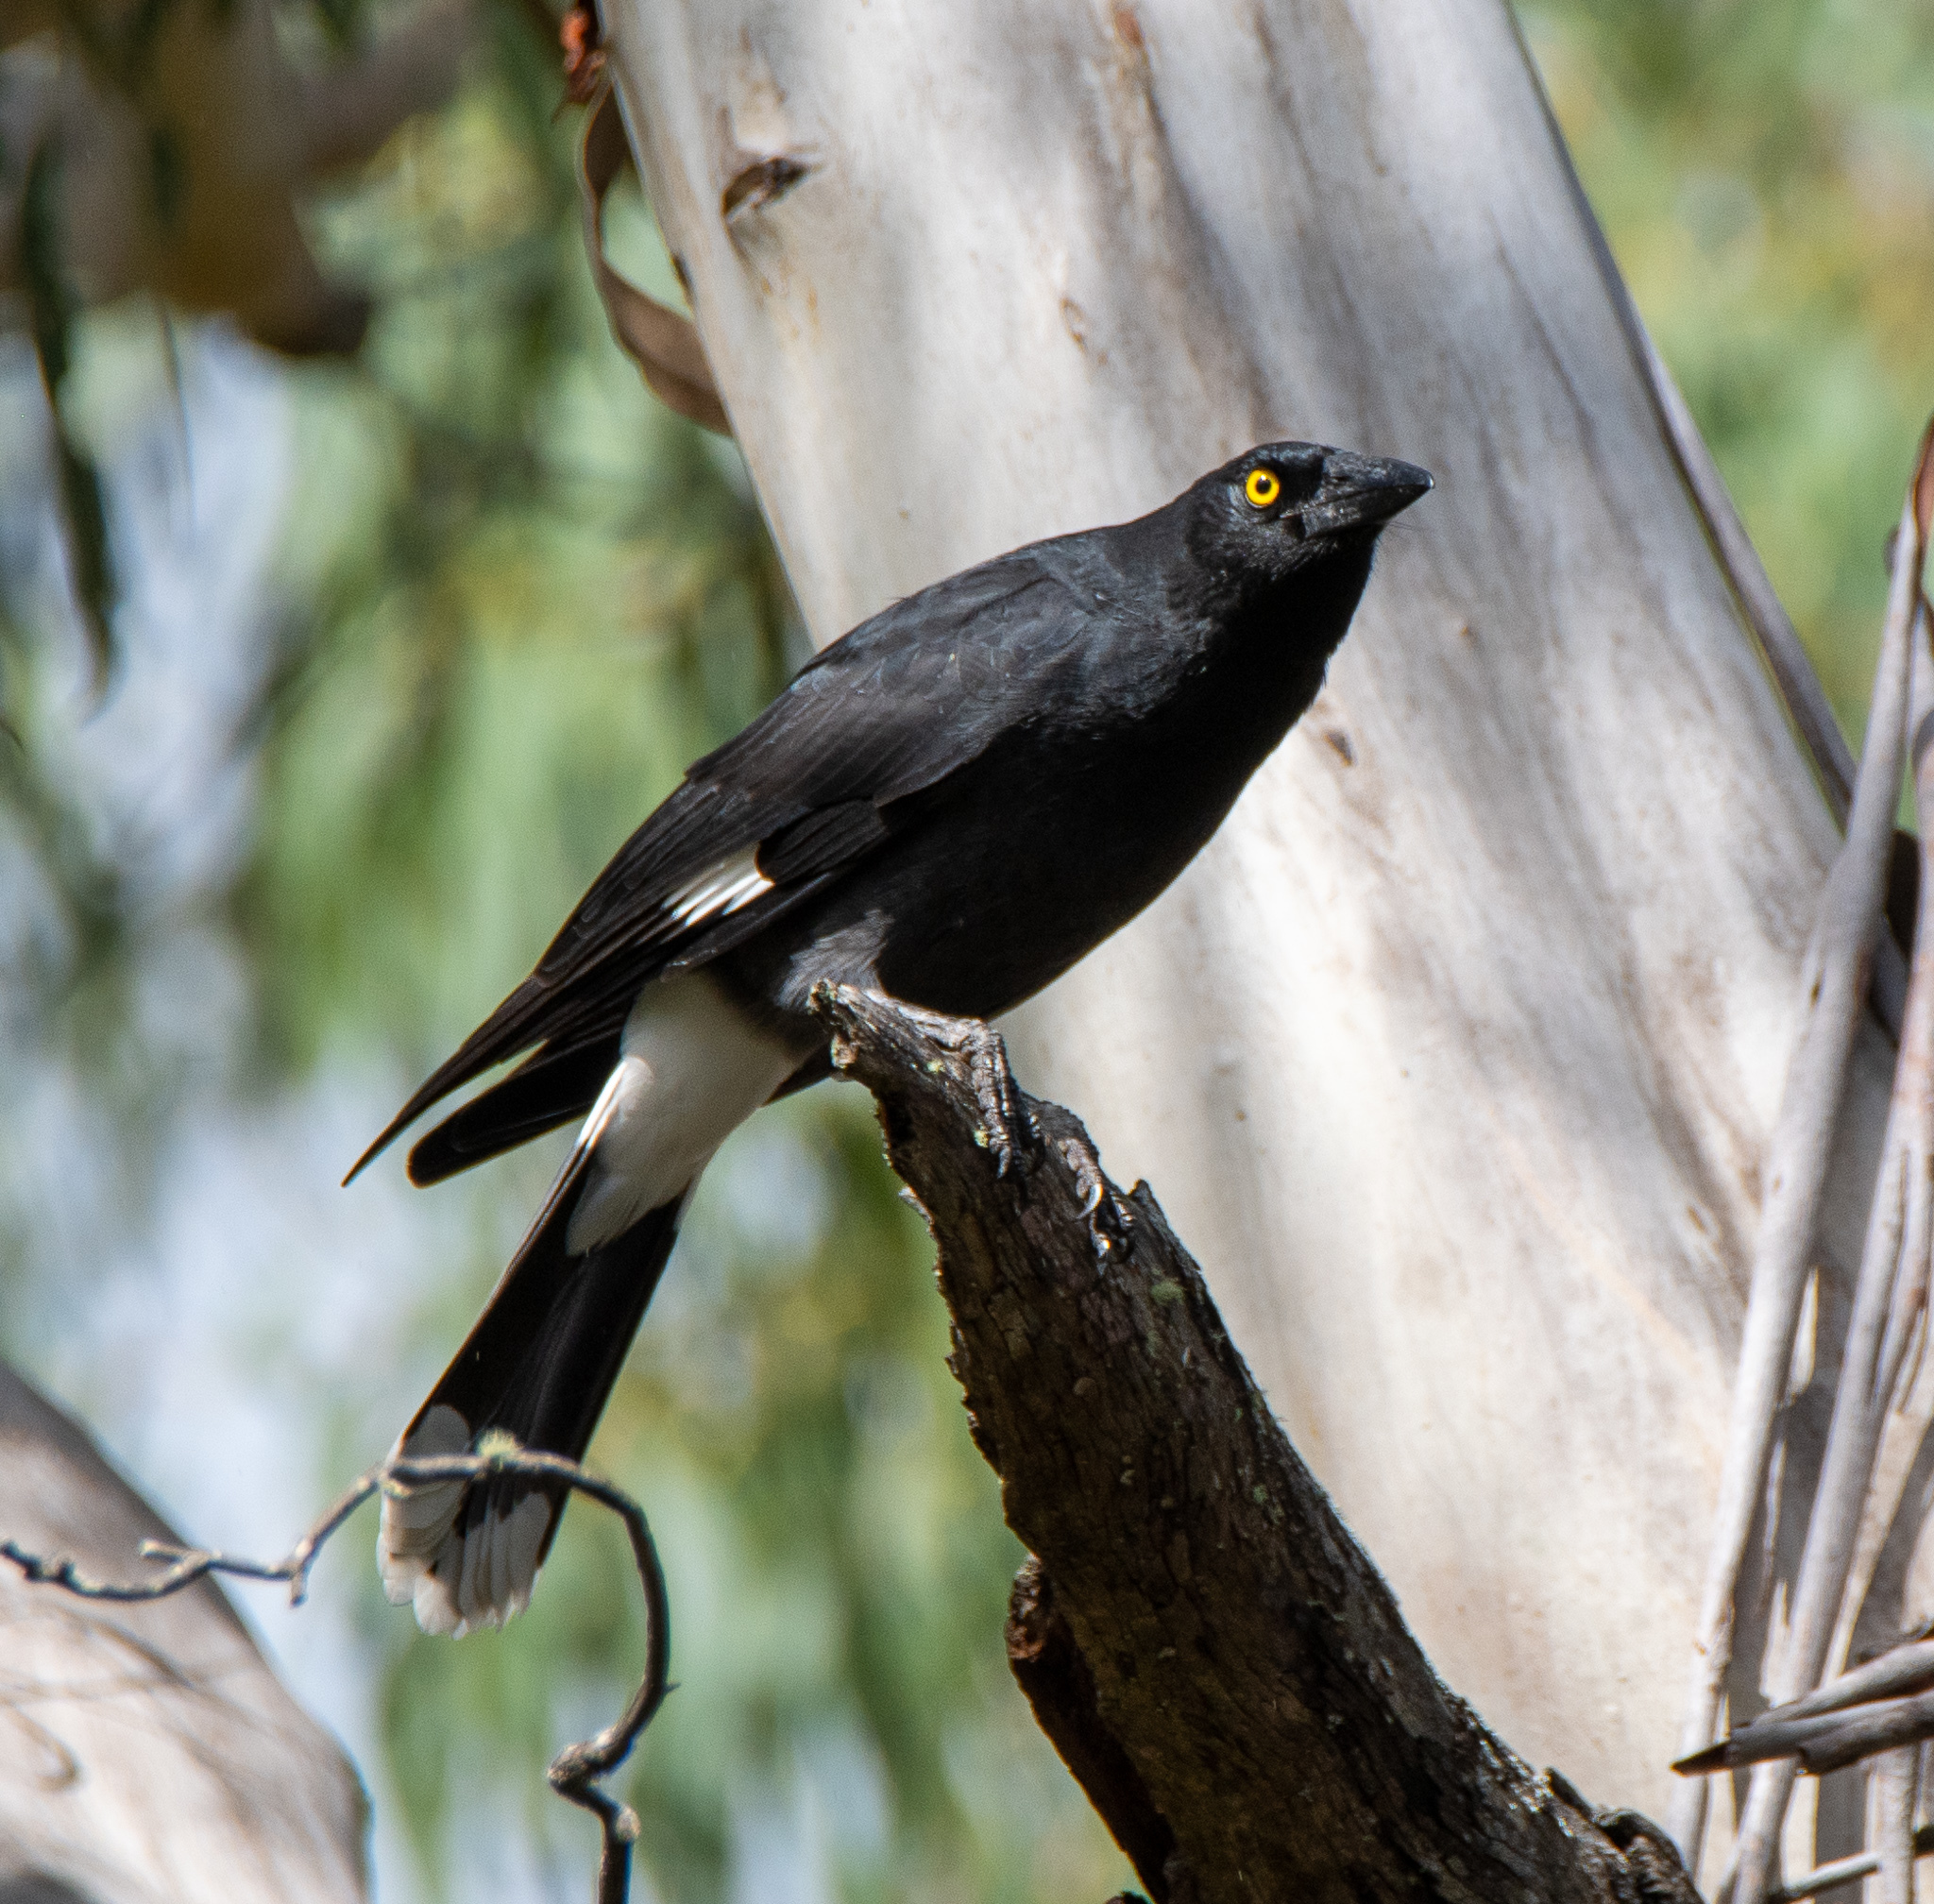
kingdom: Animalia
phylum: Chordata
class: Aves
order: Passeriformes
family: Cracticidae
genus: Strepera
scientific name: Strepera graculina
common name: Pied currawong
